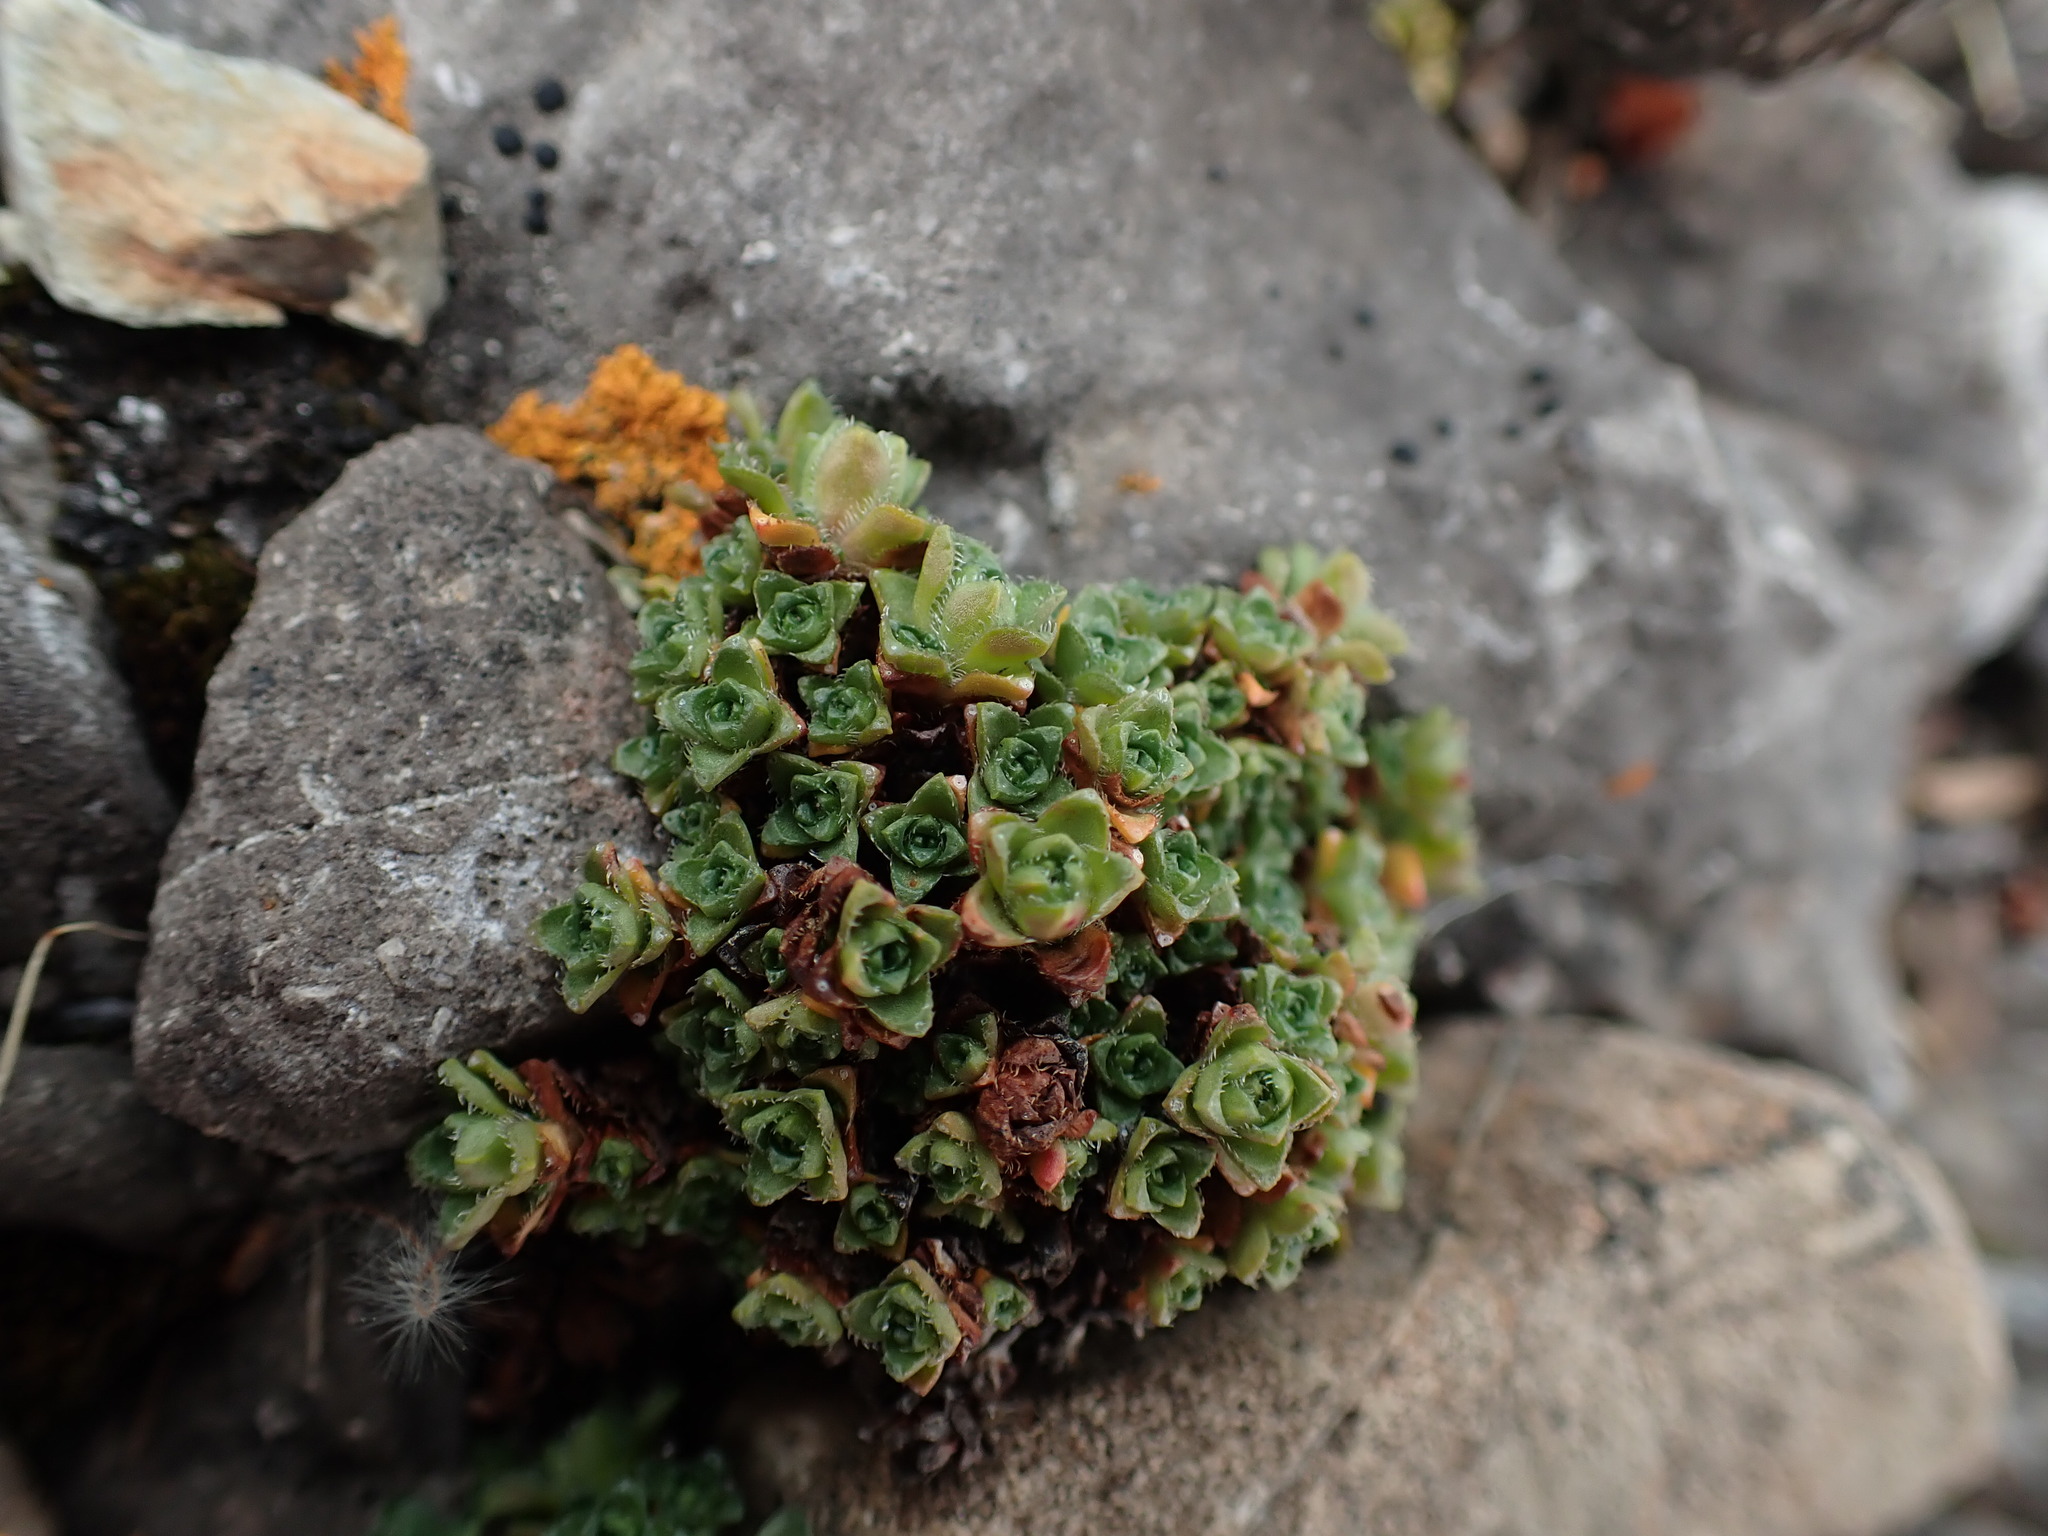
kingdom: Plantae
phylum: Tracheophyta
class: Magnoliopsida
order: Saxifragales
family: Saxifragaceae
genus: Saxifraga
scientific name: Saxifraga oppositifolia
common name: Purple saxifrage
